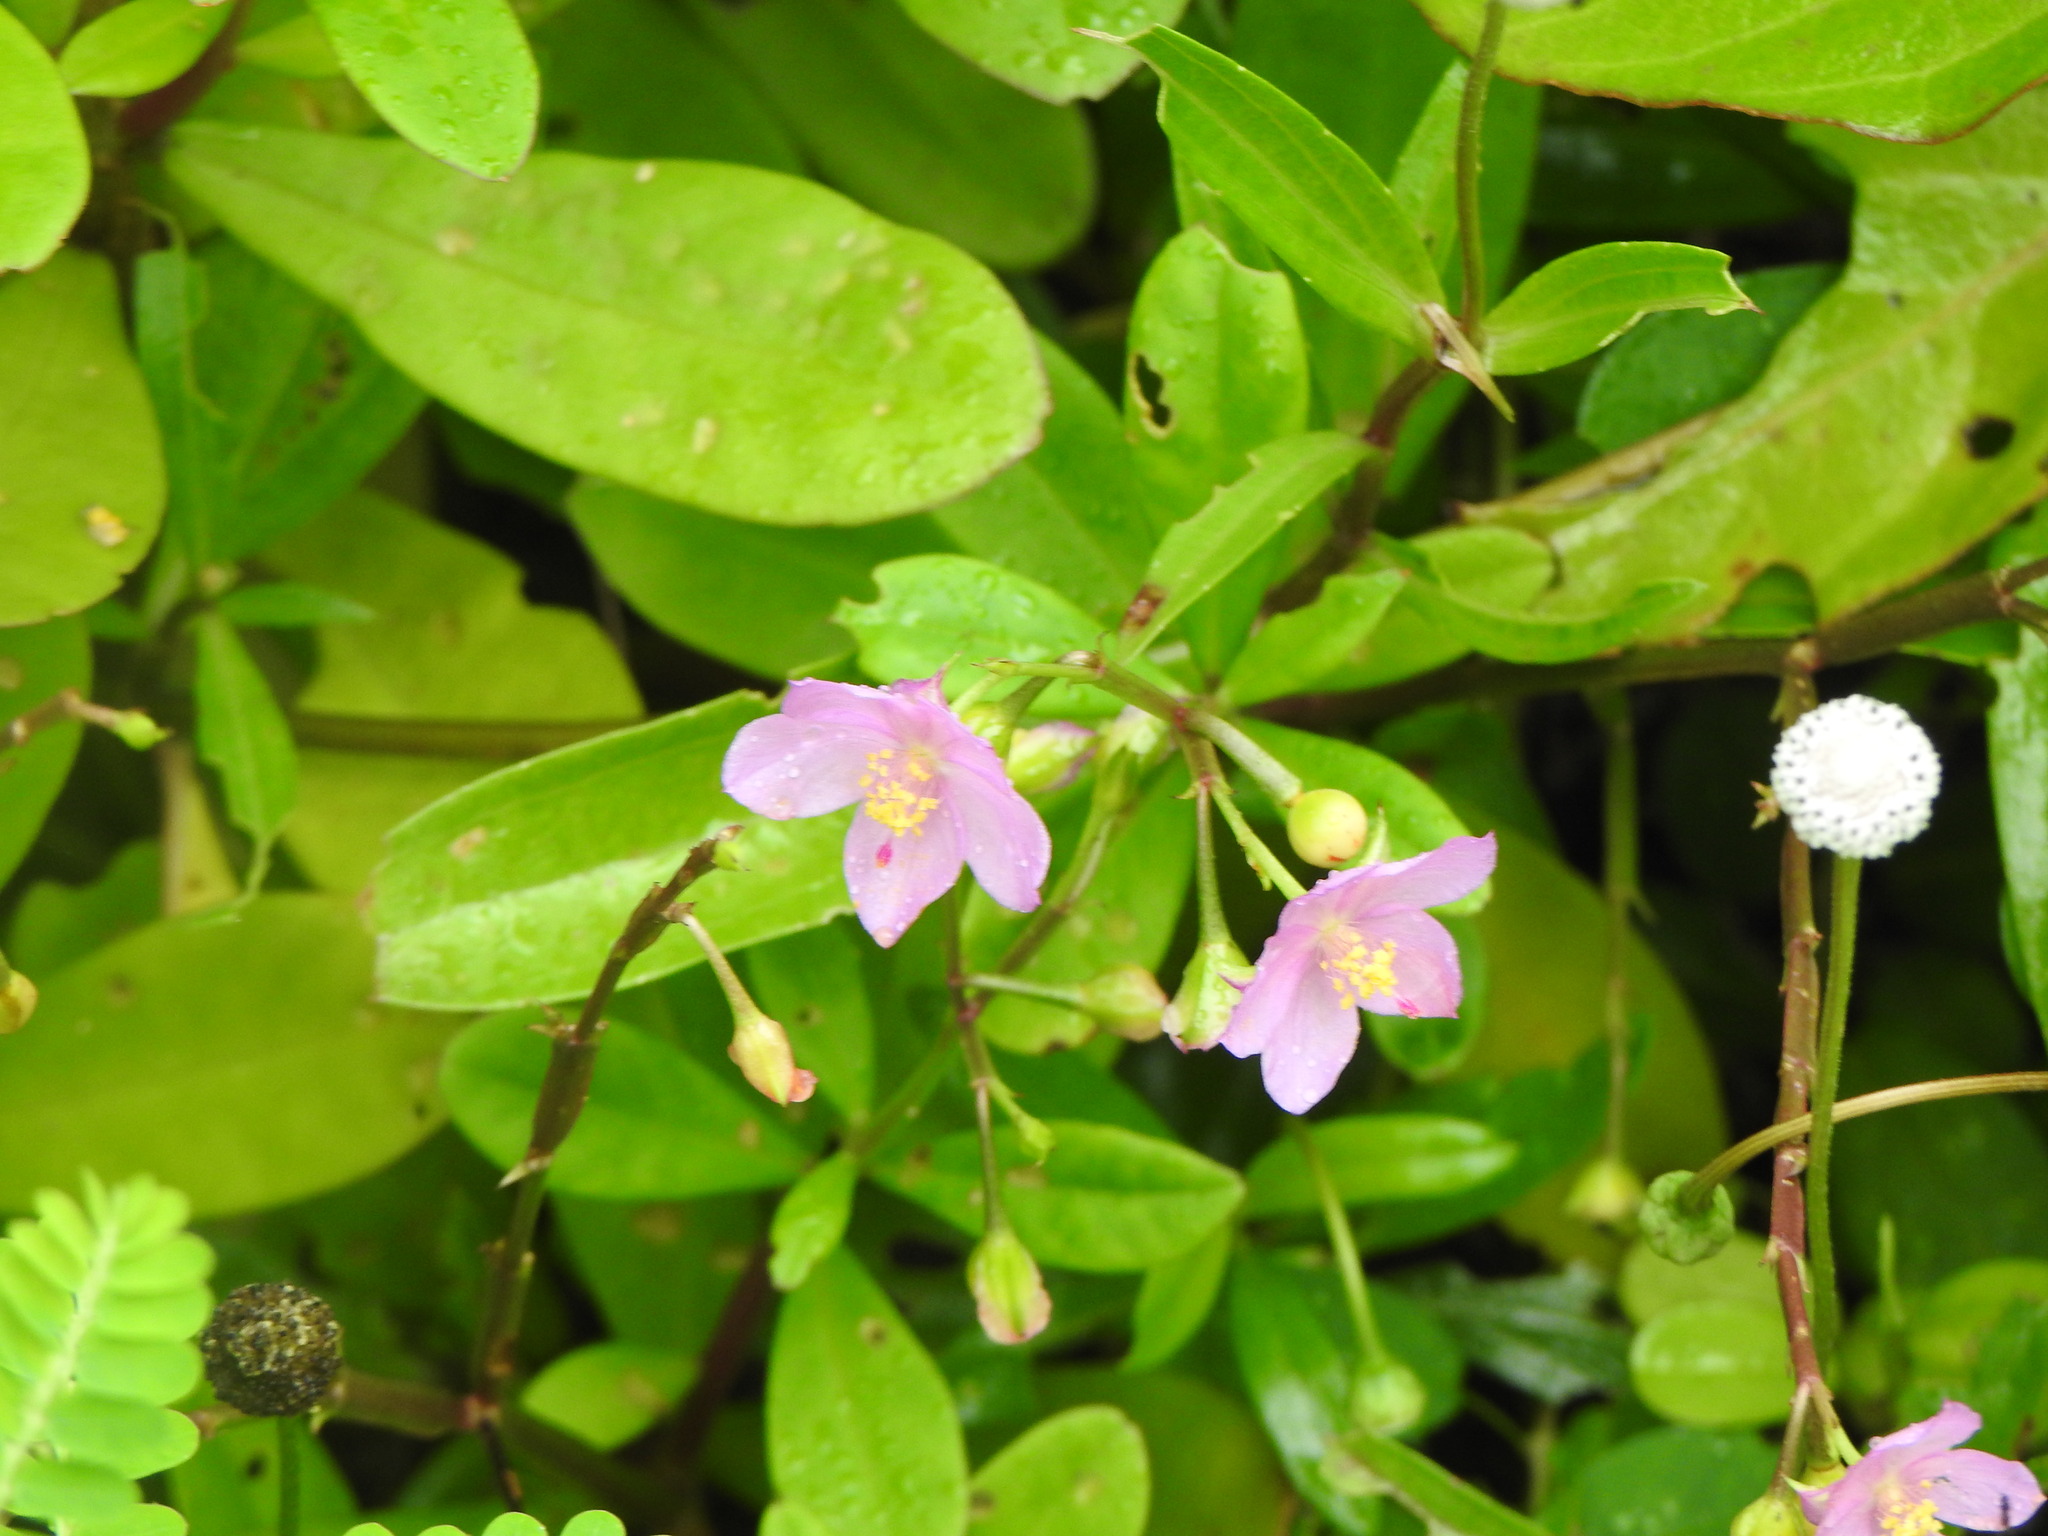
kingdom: Plantae
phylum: Tracheophyta
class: Magnoliopsida
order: Caryophyllales
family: Talinaceae
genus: Talinum
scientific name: Talinum fruticosum
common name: Verdolaga-francesa
